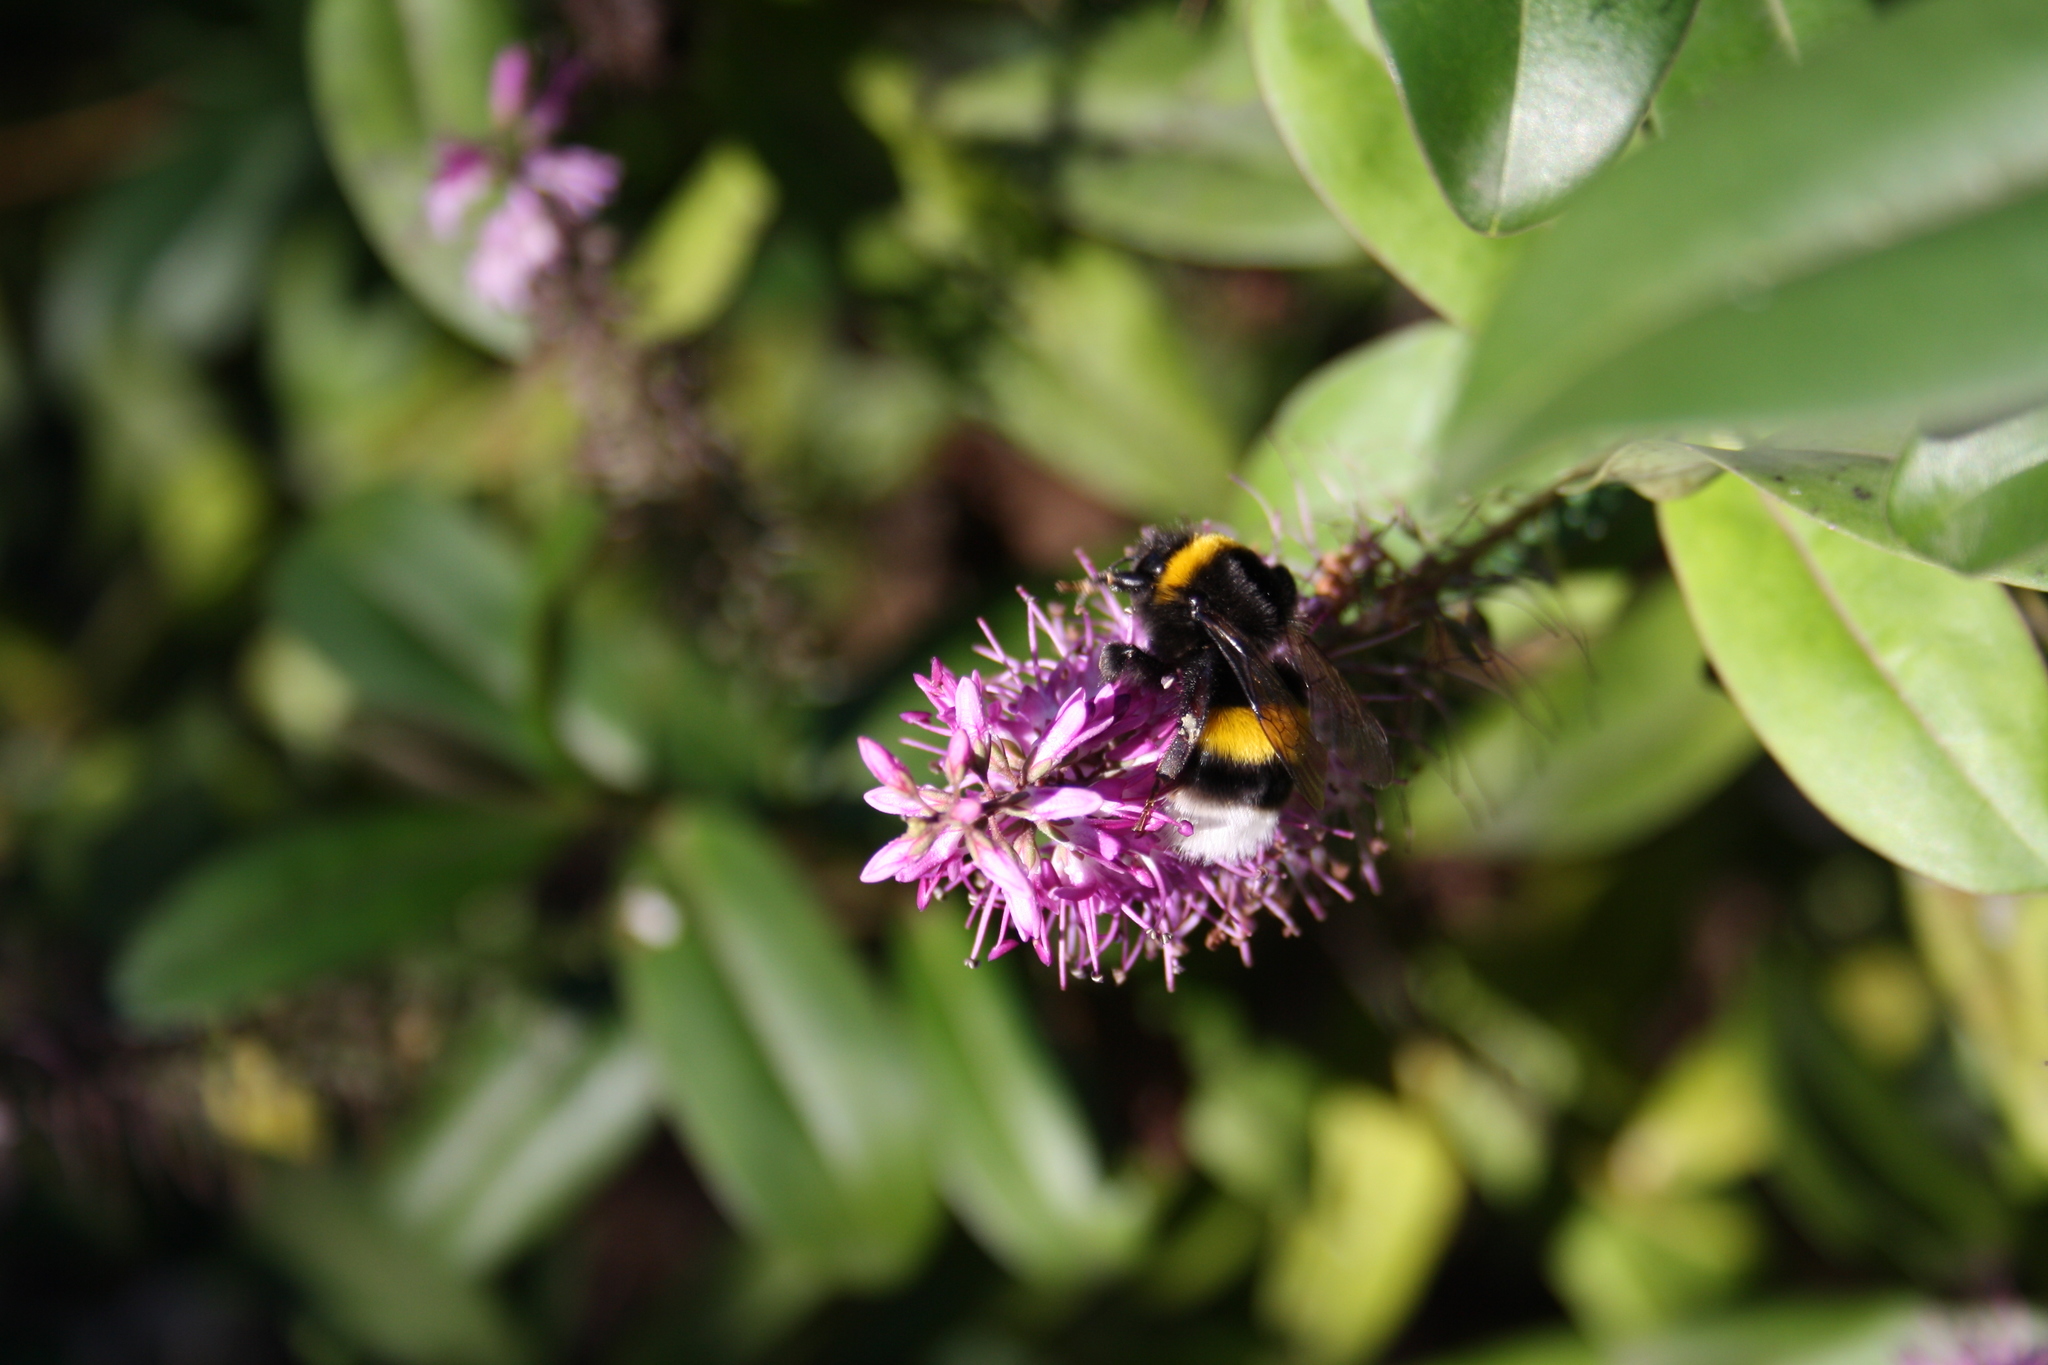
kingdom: Animalia
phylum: Arthropoda
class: Insecta
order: Hymenoptera
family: Apidae
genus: Bombus
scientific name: Bombus terrestris
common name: Buff-tailed bumblebee
